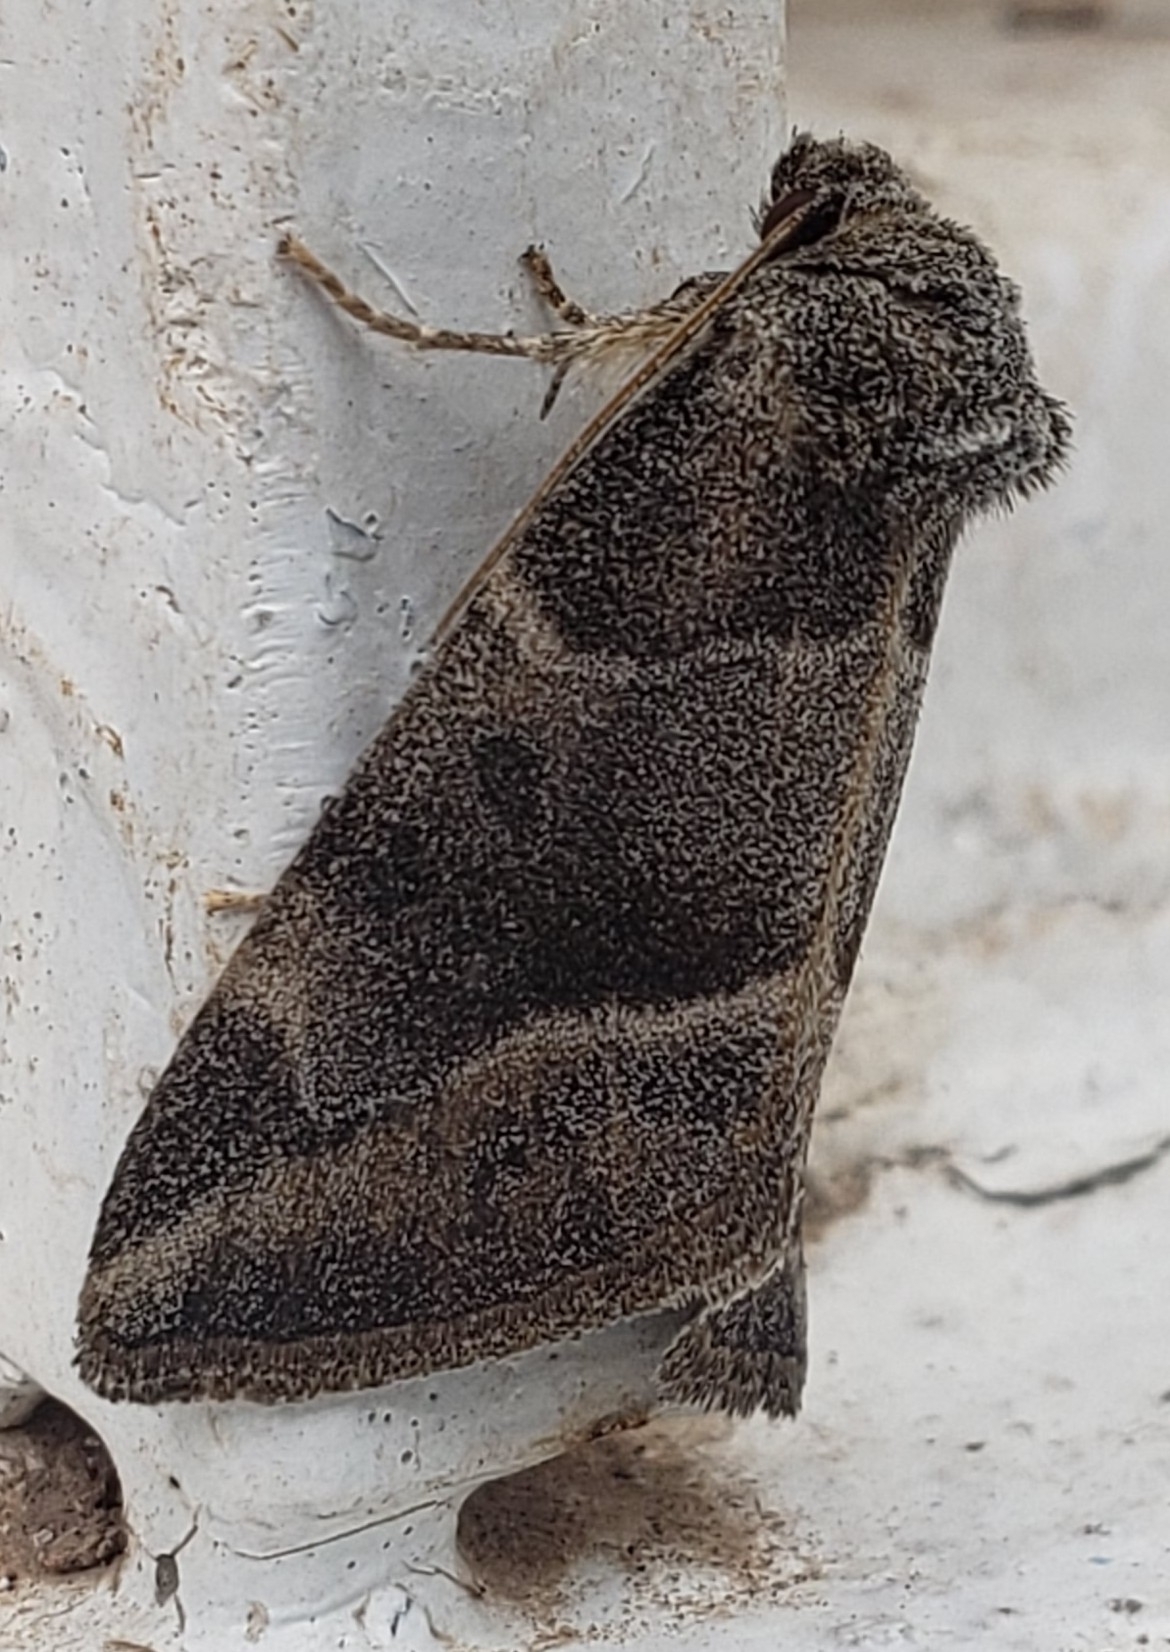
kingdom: Animalia
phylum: Arthropoda
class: Insecta
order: Lepidoptera
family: Noctuidae
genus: Plagiomimicus
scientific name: Plagiomimicus
